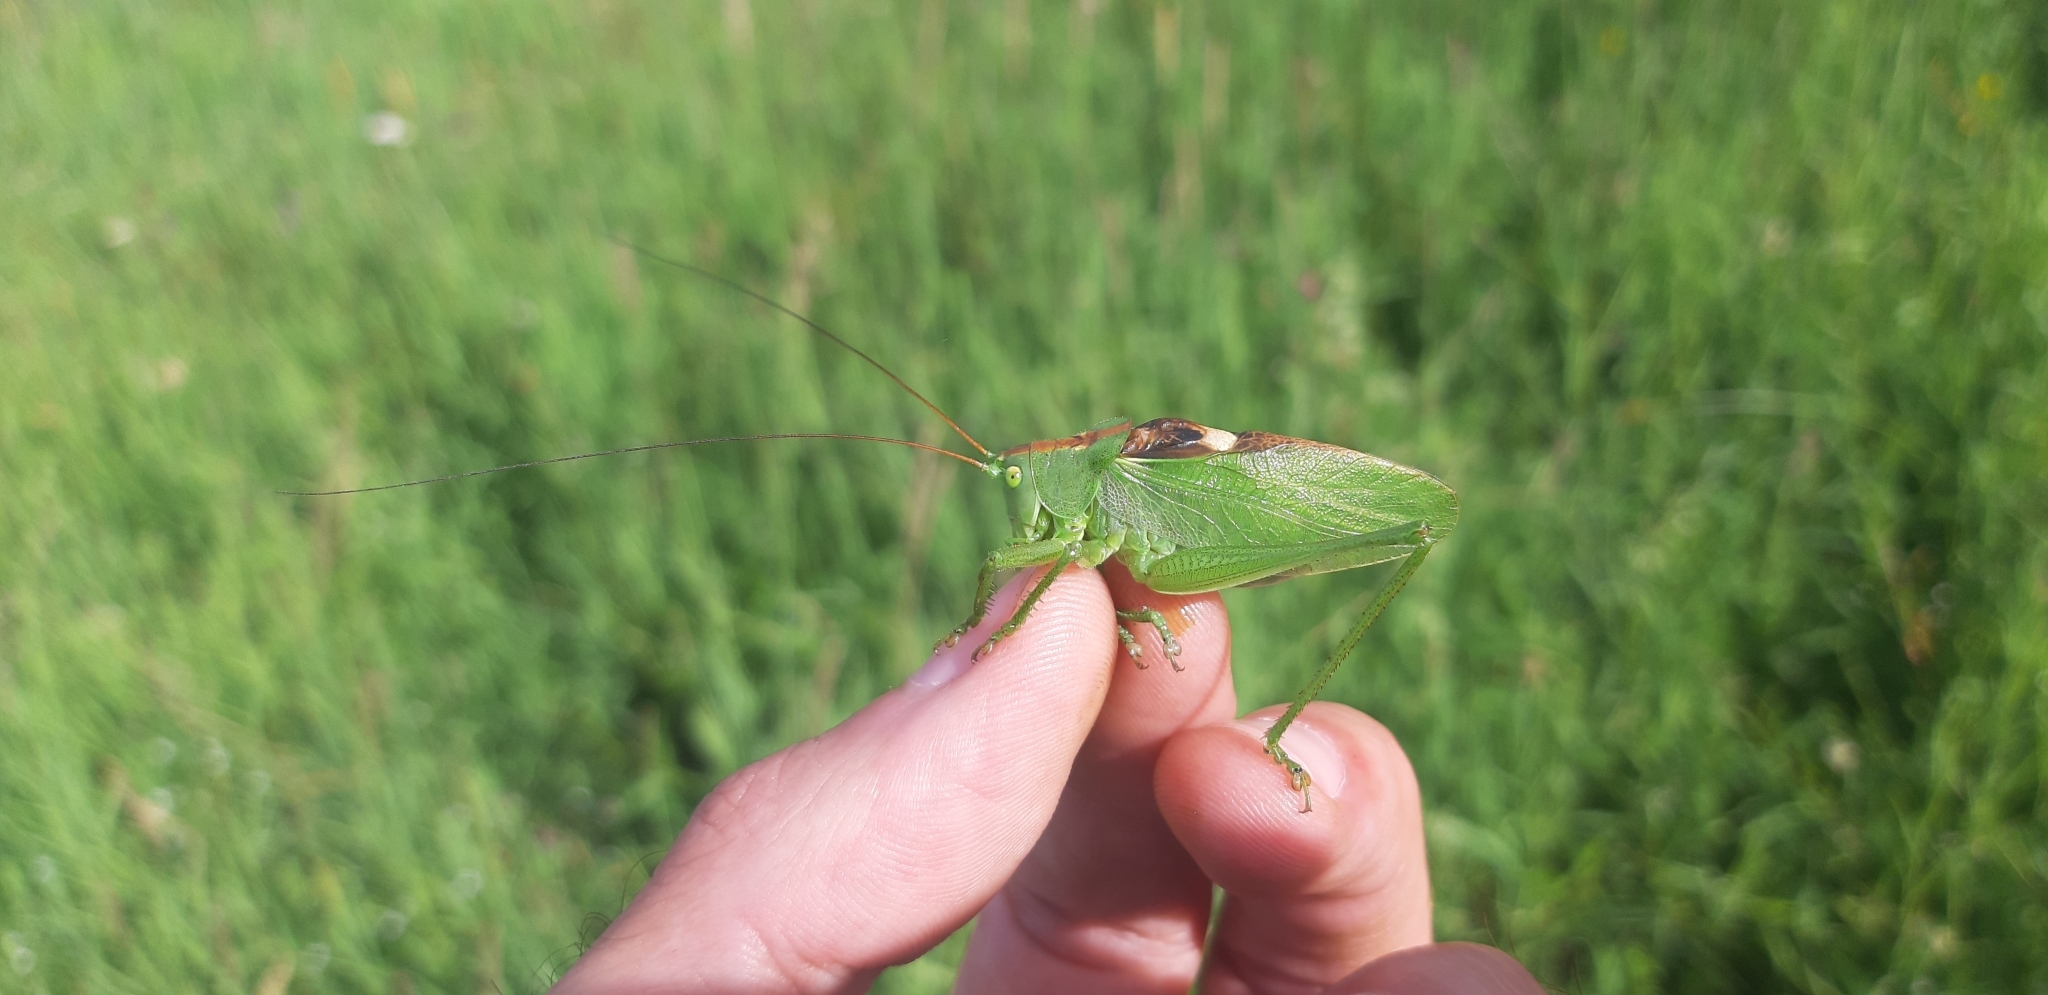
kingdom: Animalia
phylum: Arthropoda
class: Insecta
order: Orthoptera
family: Tettigoniidae
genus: Tettigonia
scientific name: Tettigonia cantans
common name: Upland green bush-cricket
